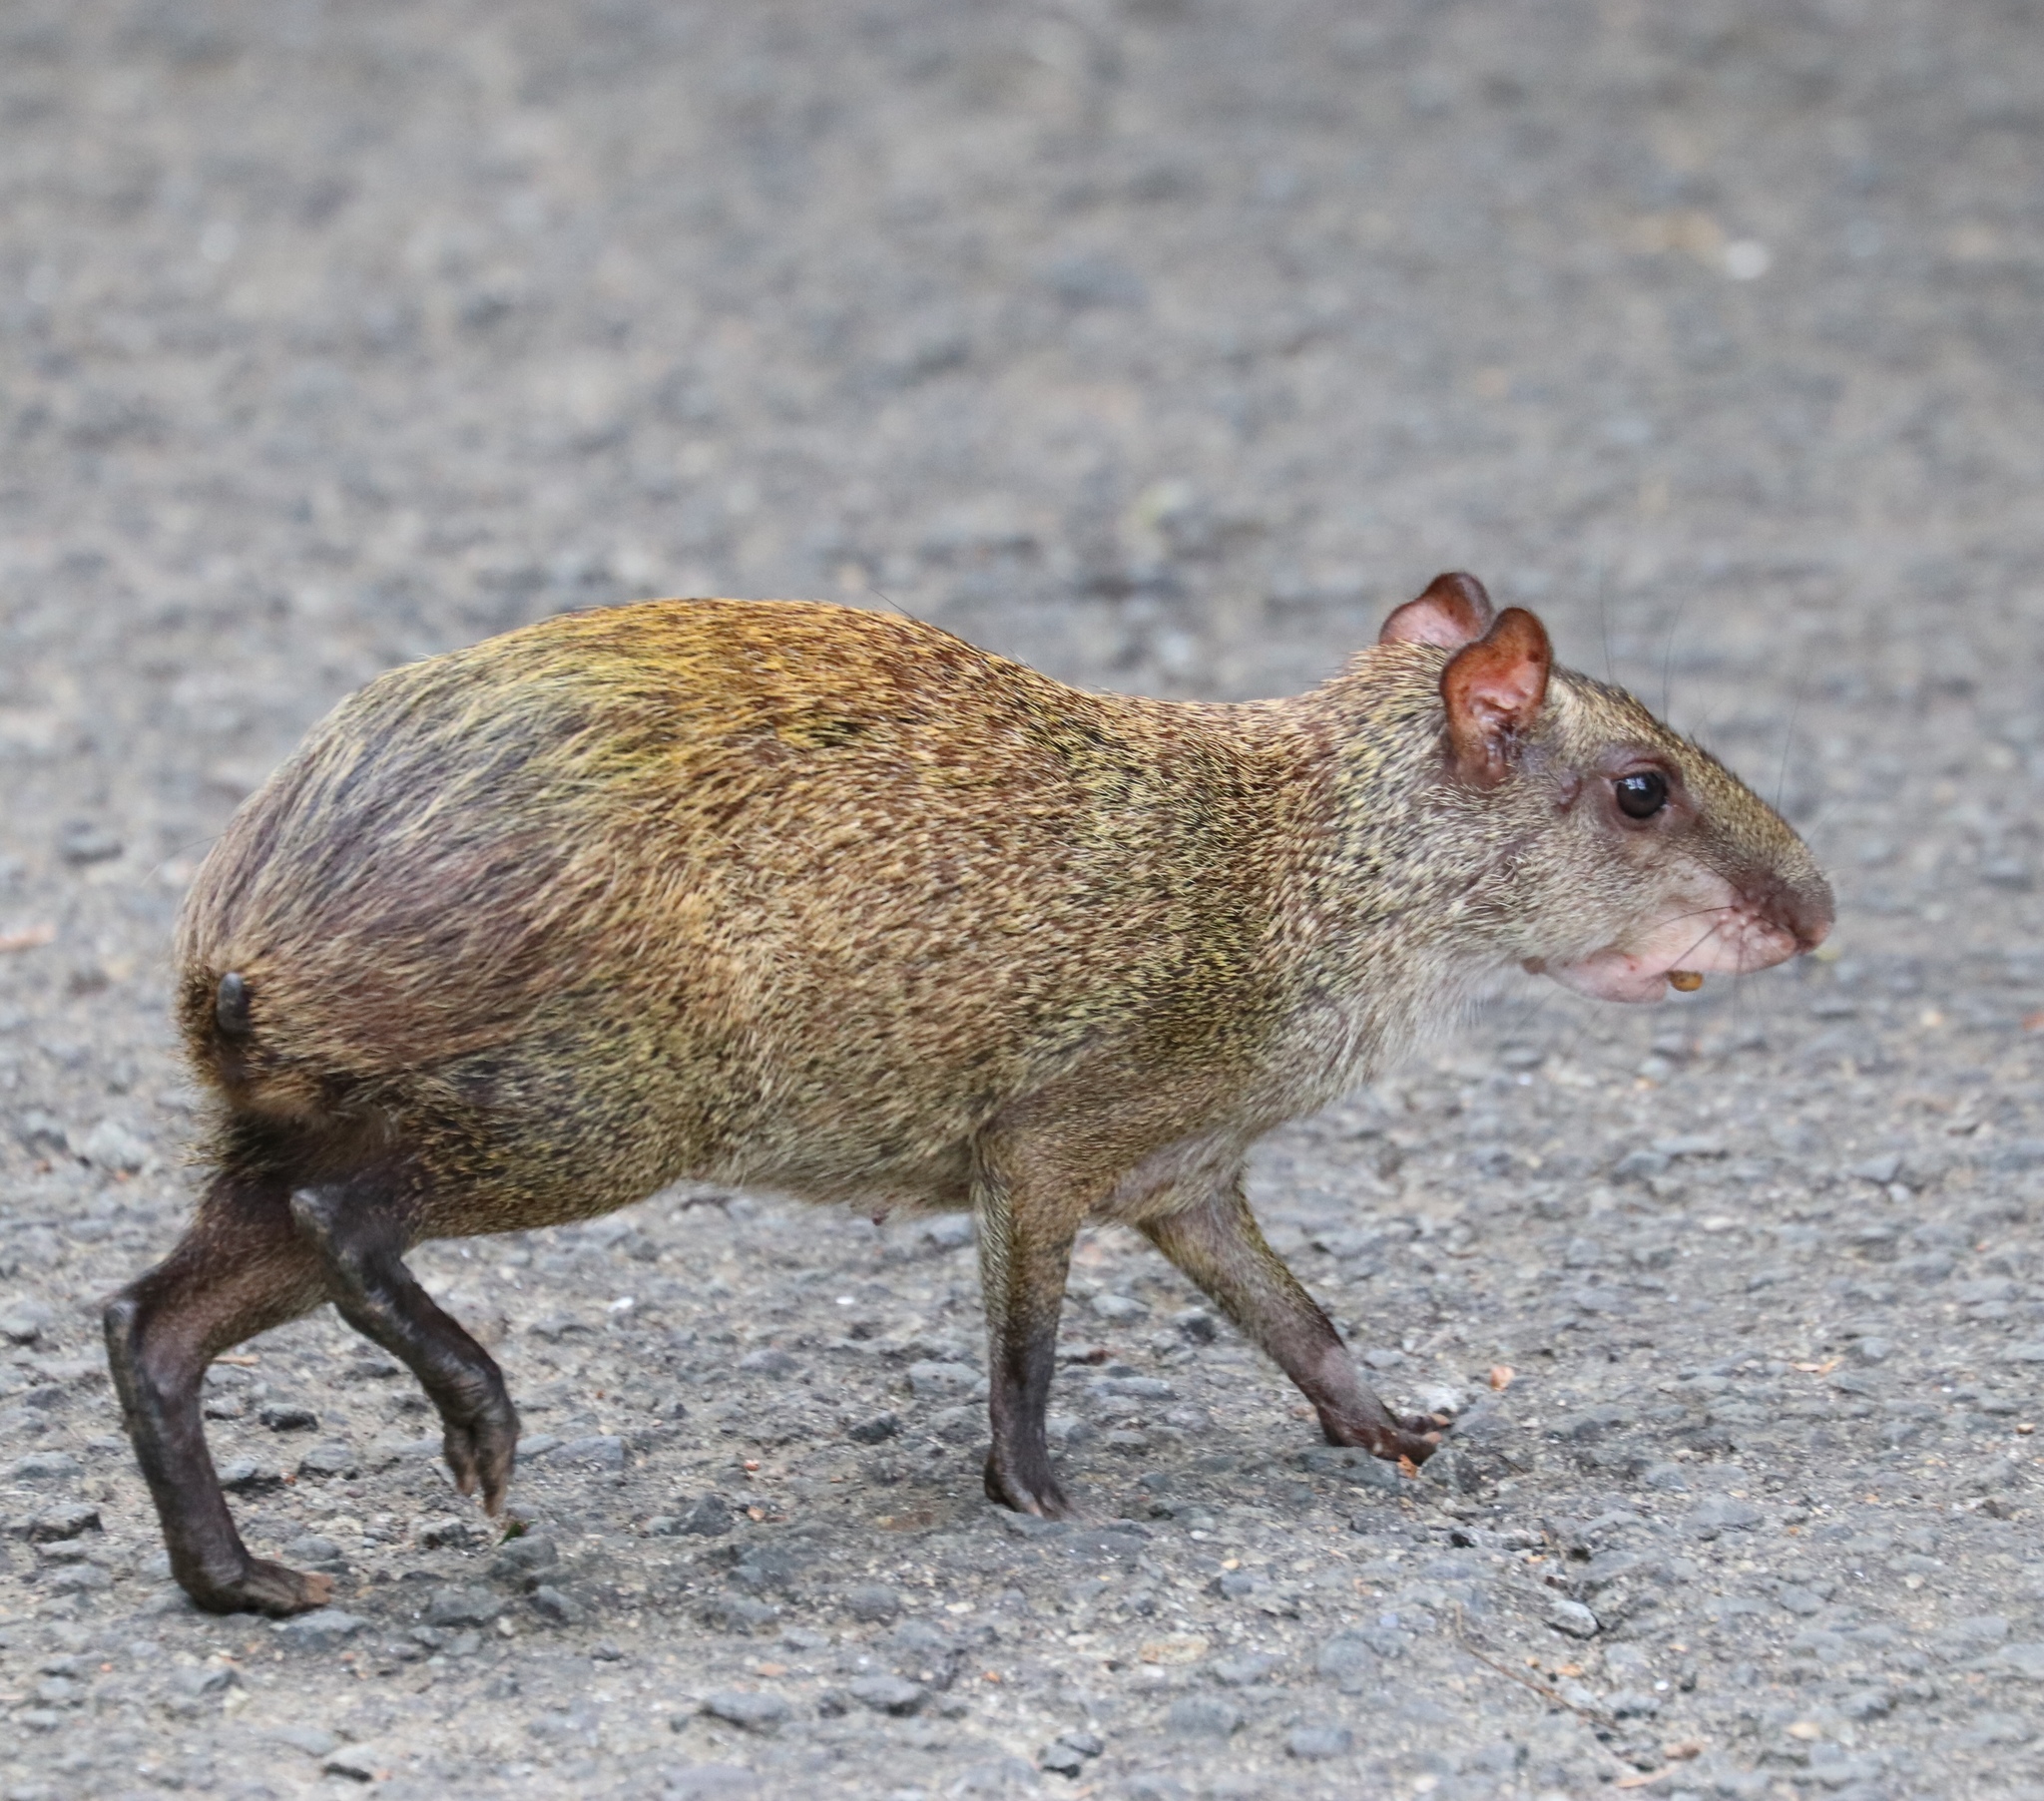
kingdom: Animalia
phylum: Chordata
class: Mammalia
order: Rodentia
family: Dasyproctidae
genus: Dasyprocta
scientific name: Dasyprocta punctata
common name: Central american agouti
